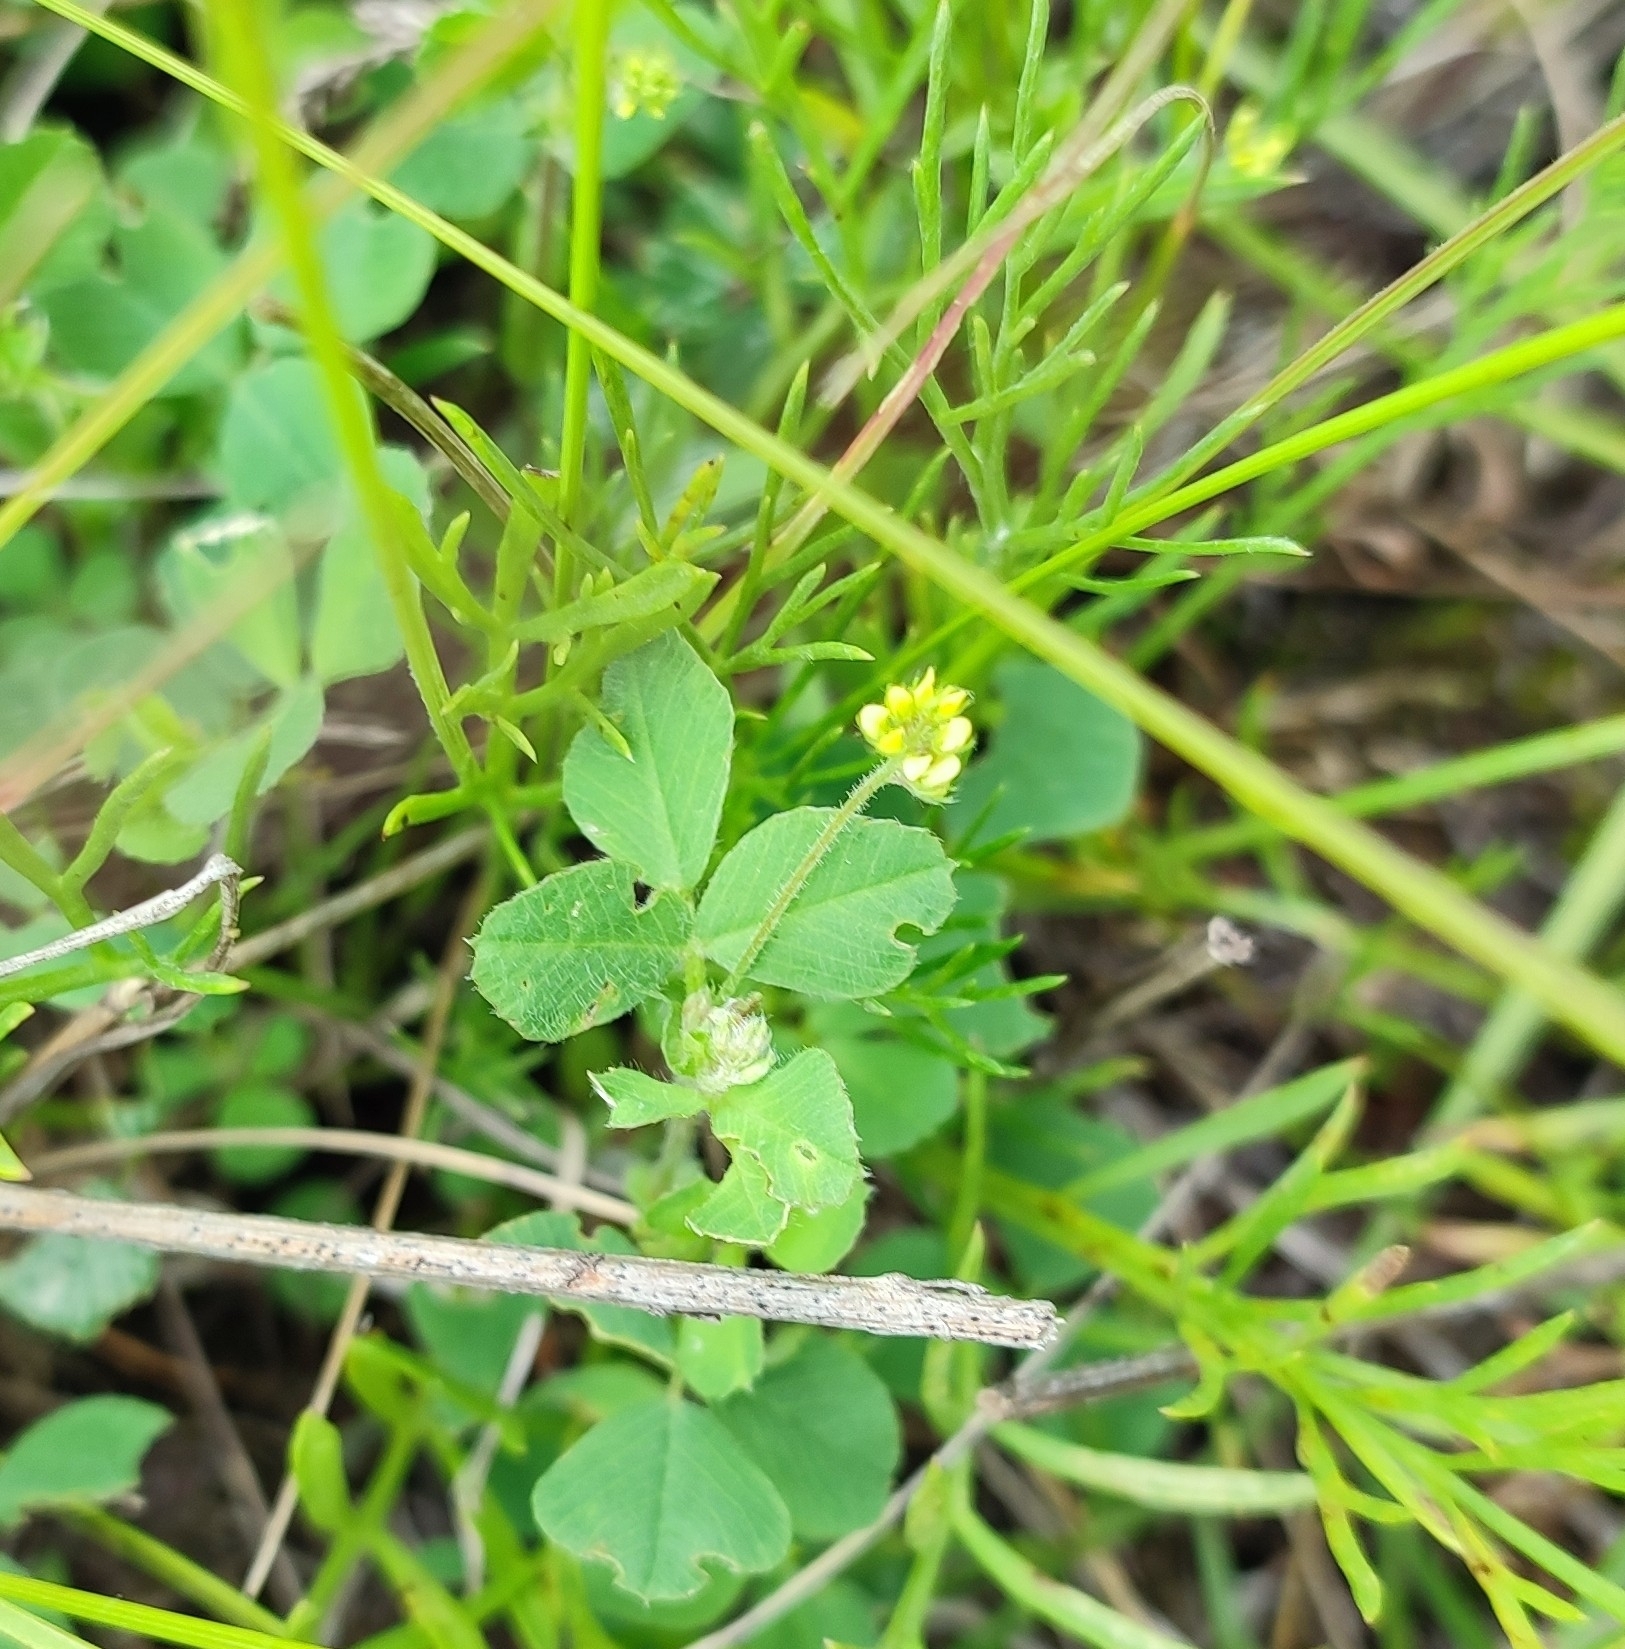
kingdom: Plantae
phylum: Tracheophyta
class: Magnoliopsida
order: Fabales
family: Fabaceae
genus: Medicago
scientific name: Medicago lupulina
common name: Black medick
